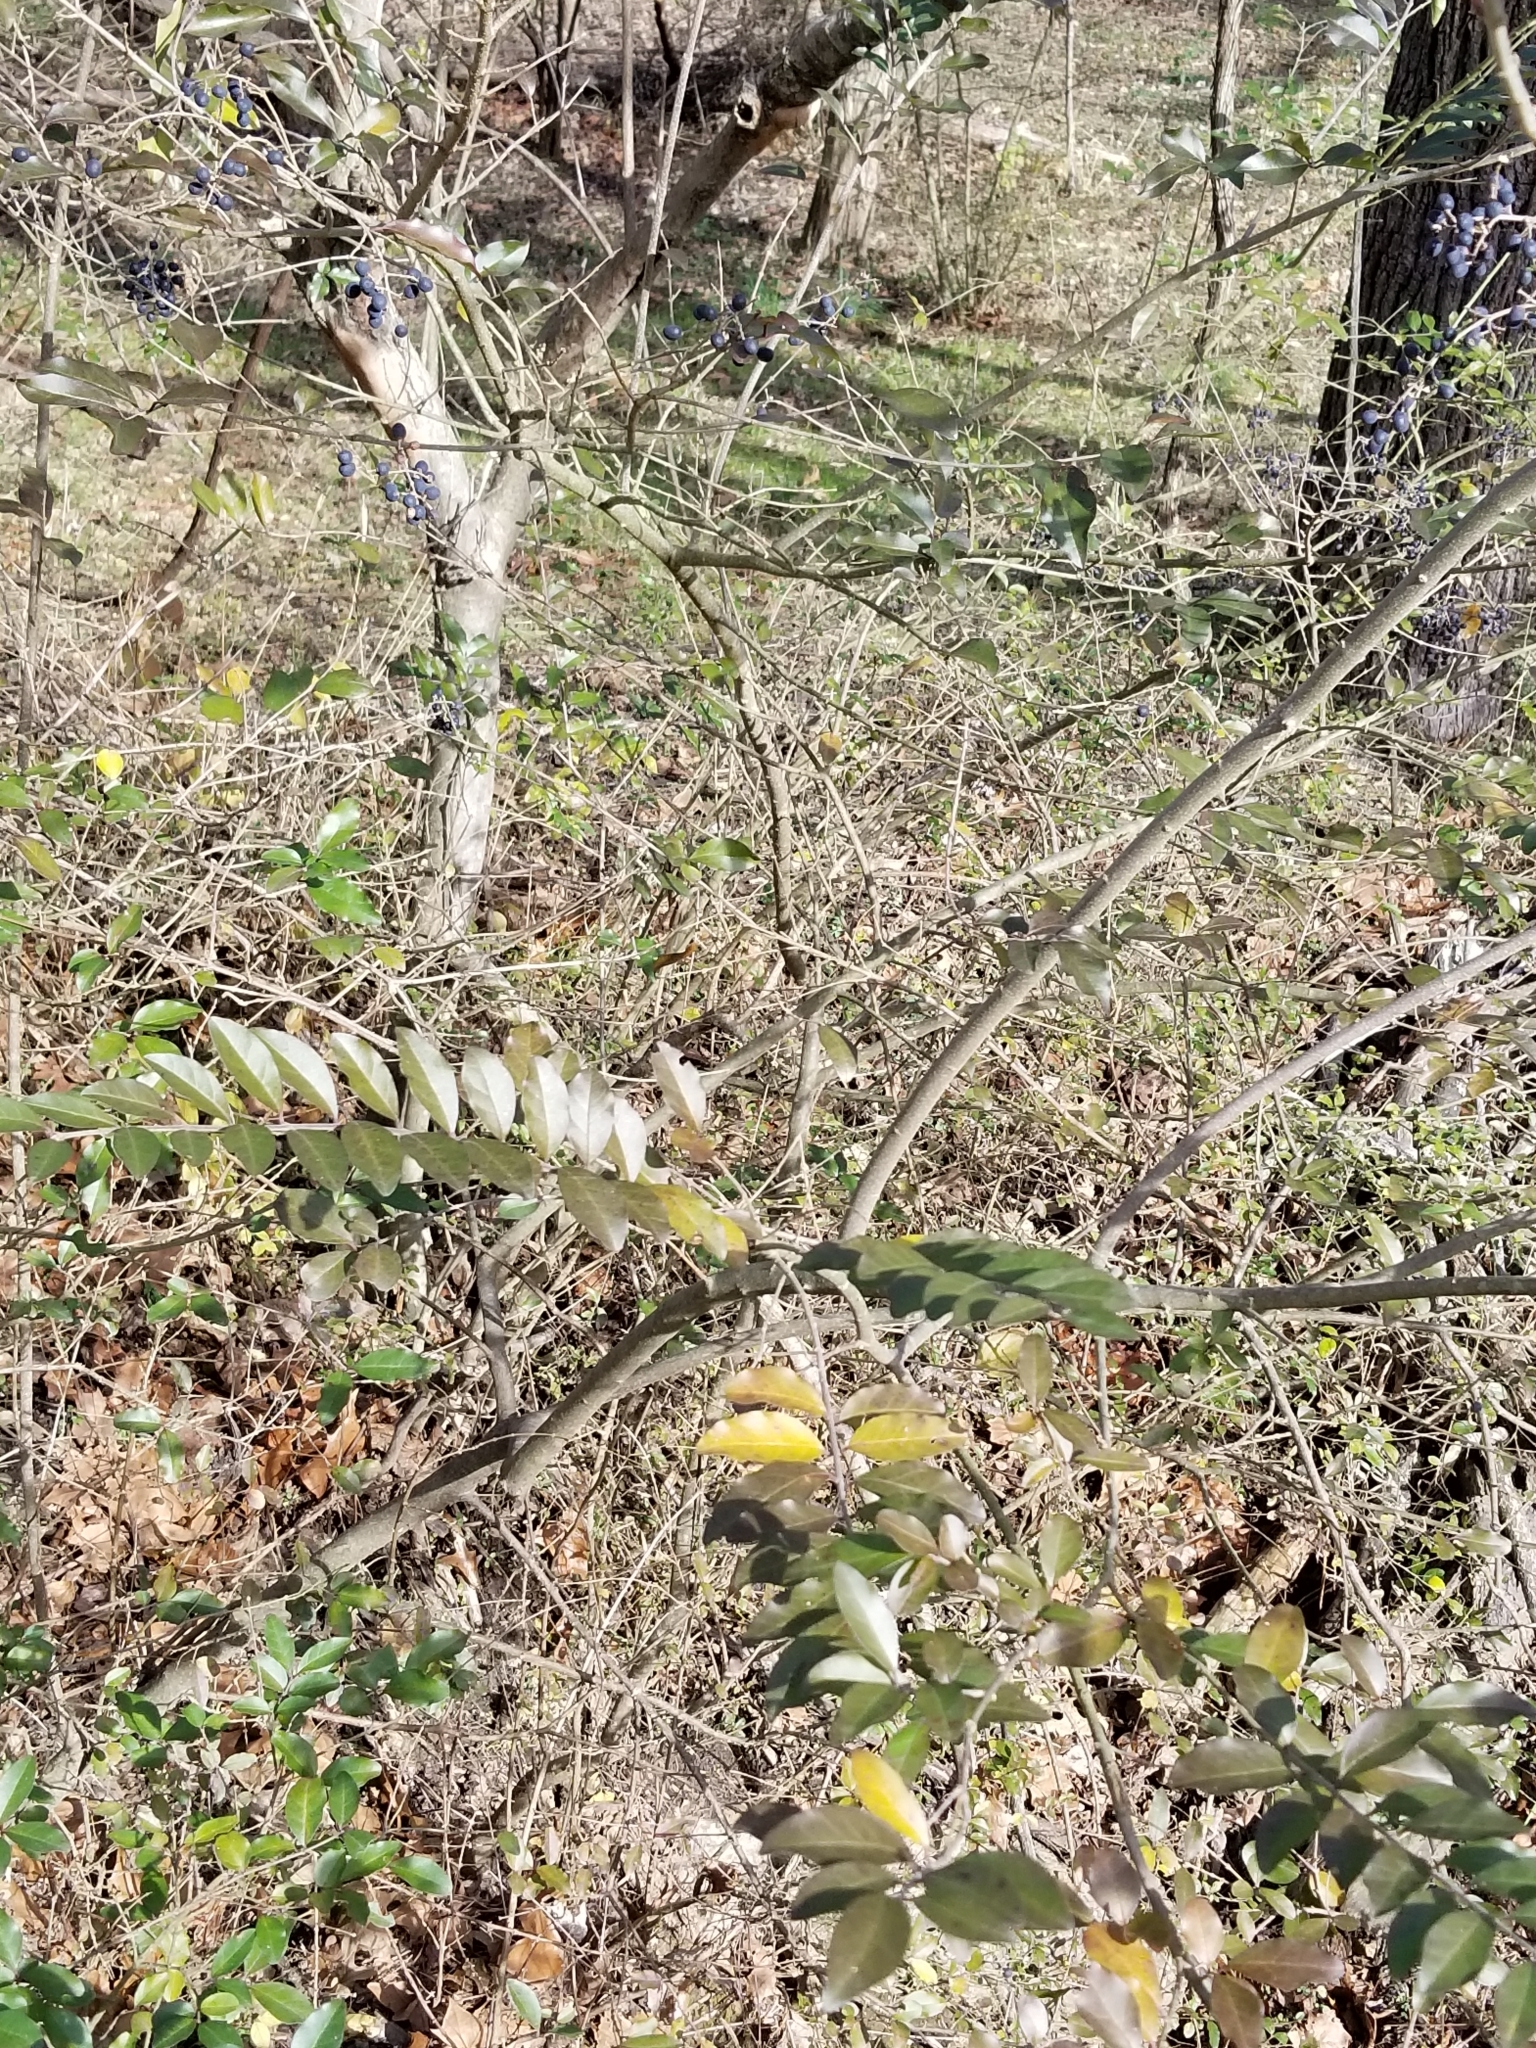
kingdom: Plantae
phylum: Tracheophyta
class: Magnoliopsida
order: Lamiales
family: Oleaceae
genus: Ligustrum
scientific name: Ligustrum sinense
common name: Chinese privet
